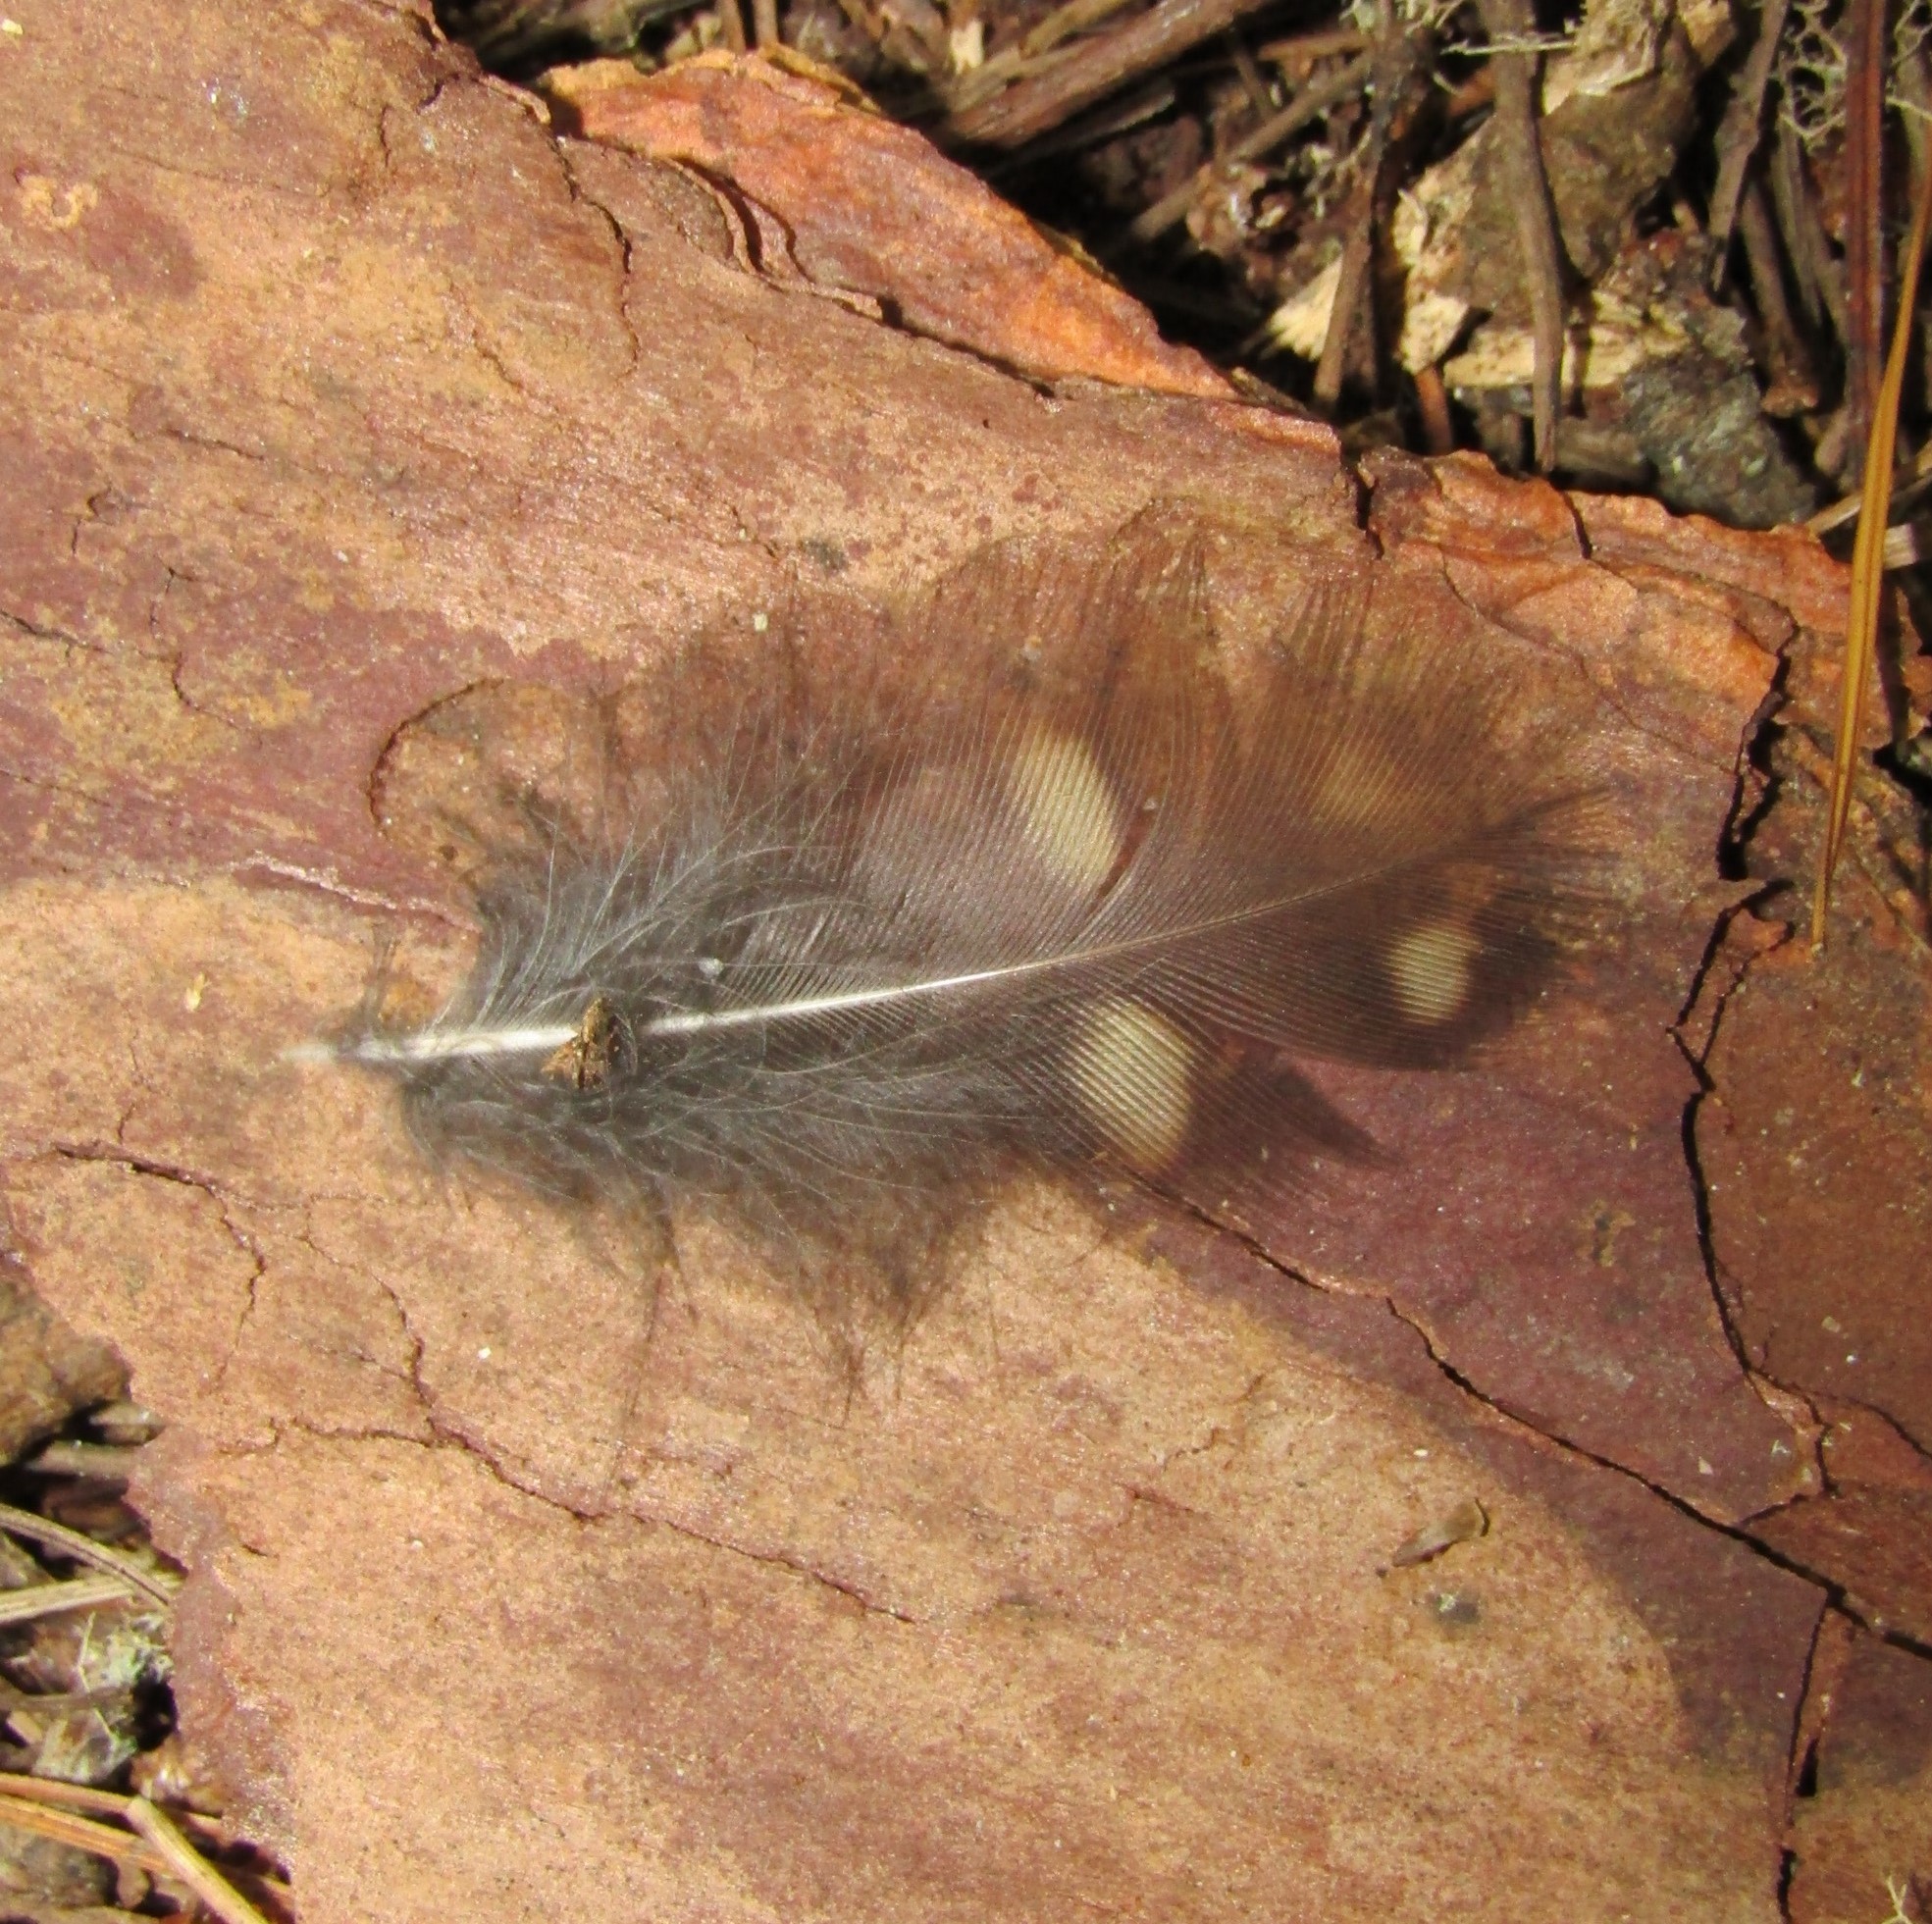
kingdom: Animalia
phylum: Chordata
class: Aves
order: Strigiformes
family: Strigidae
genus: Ninox
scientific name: Ninox novaeseelandiae
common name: Morepork
